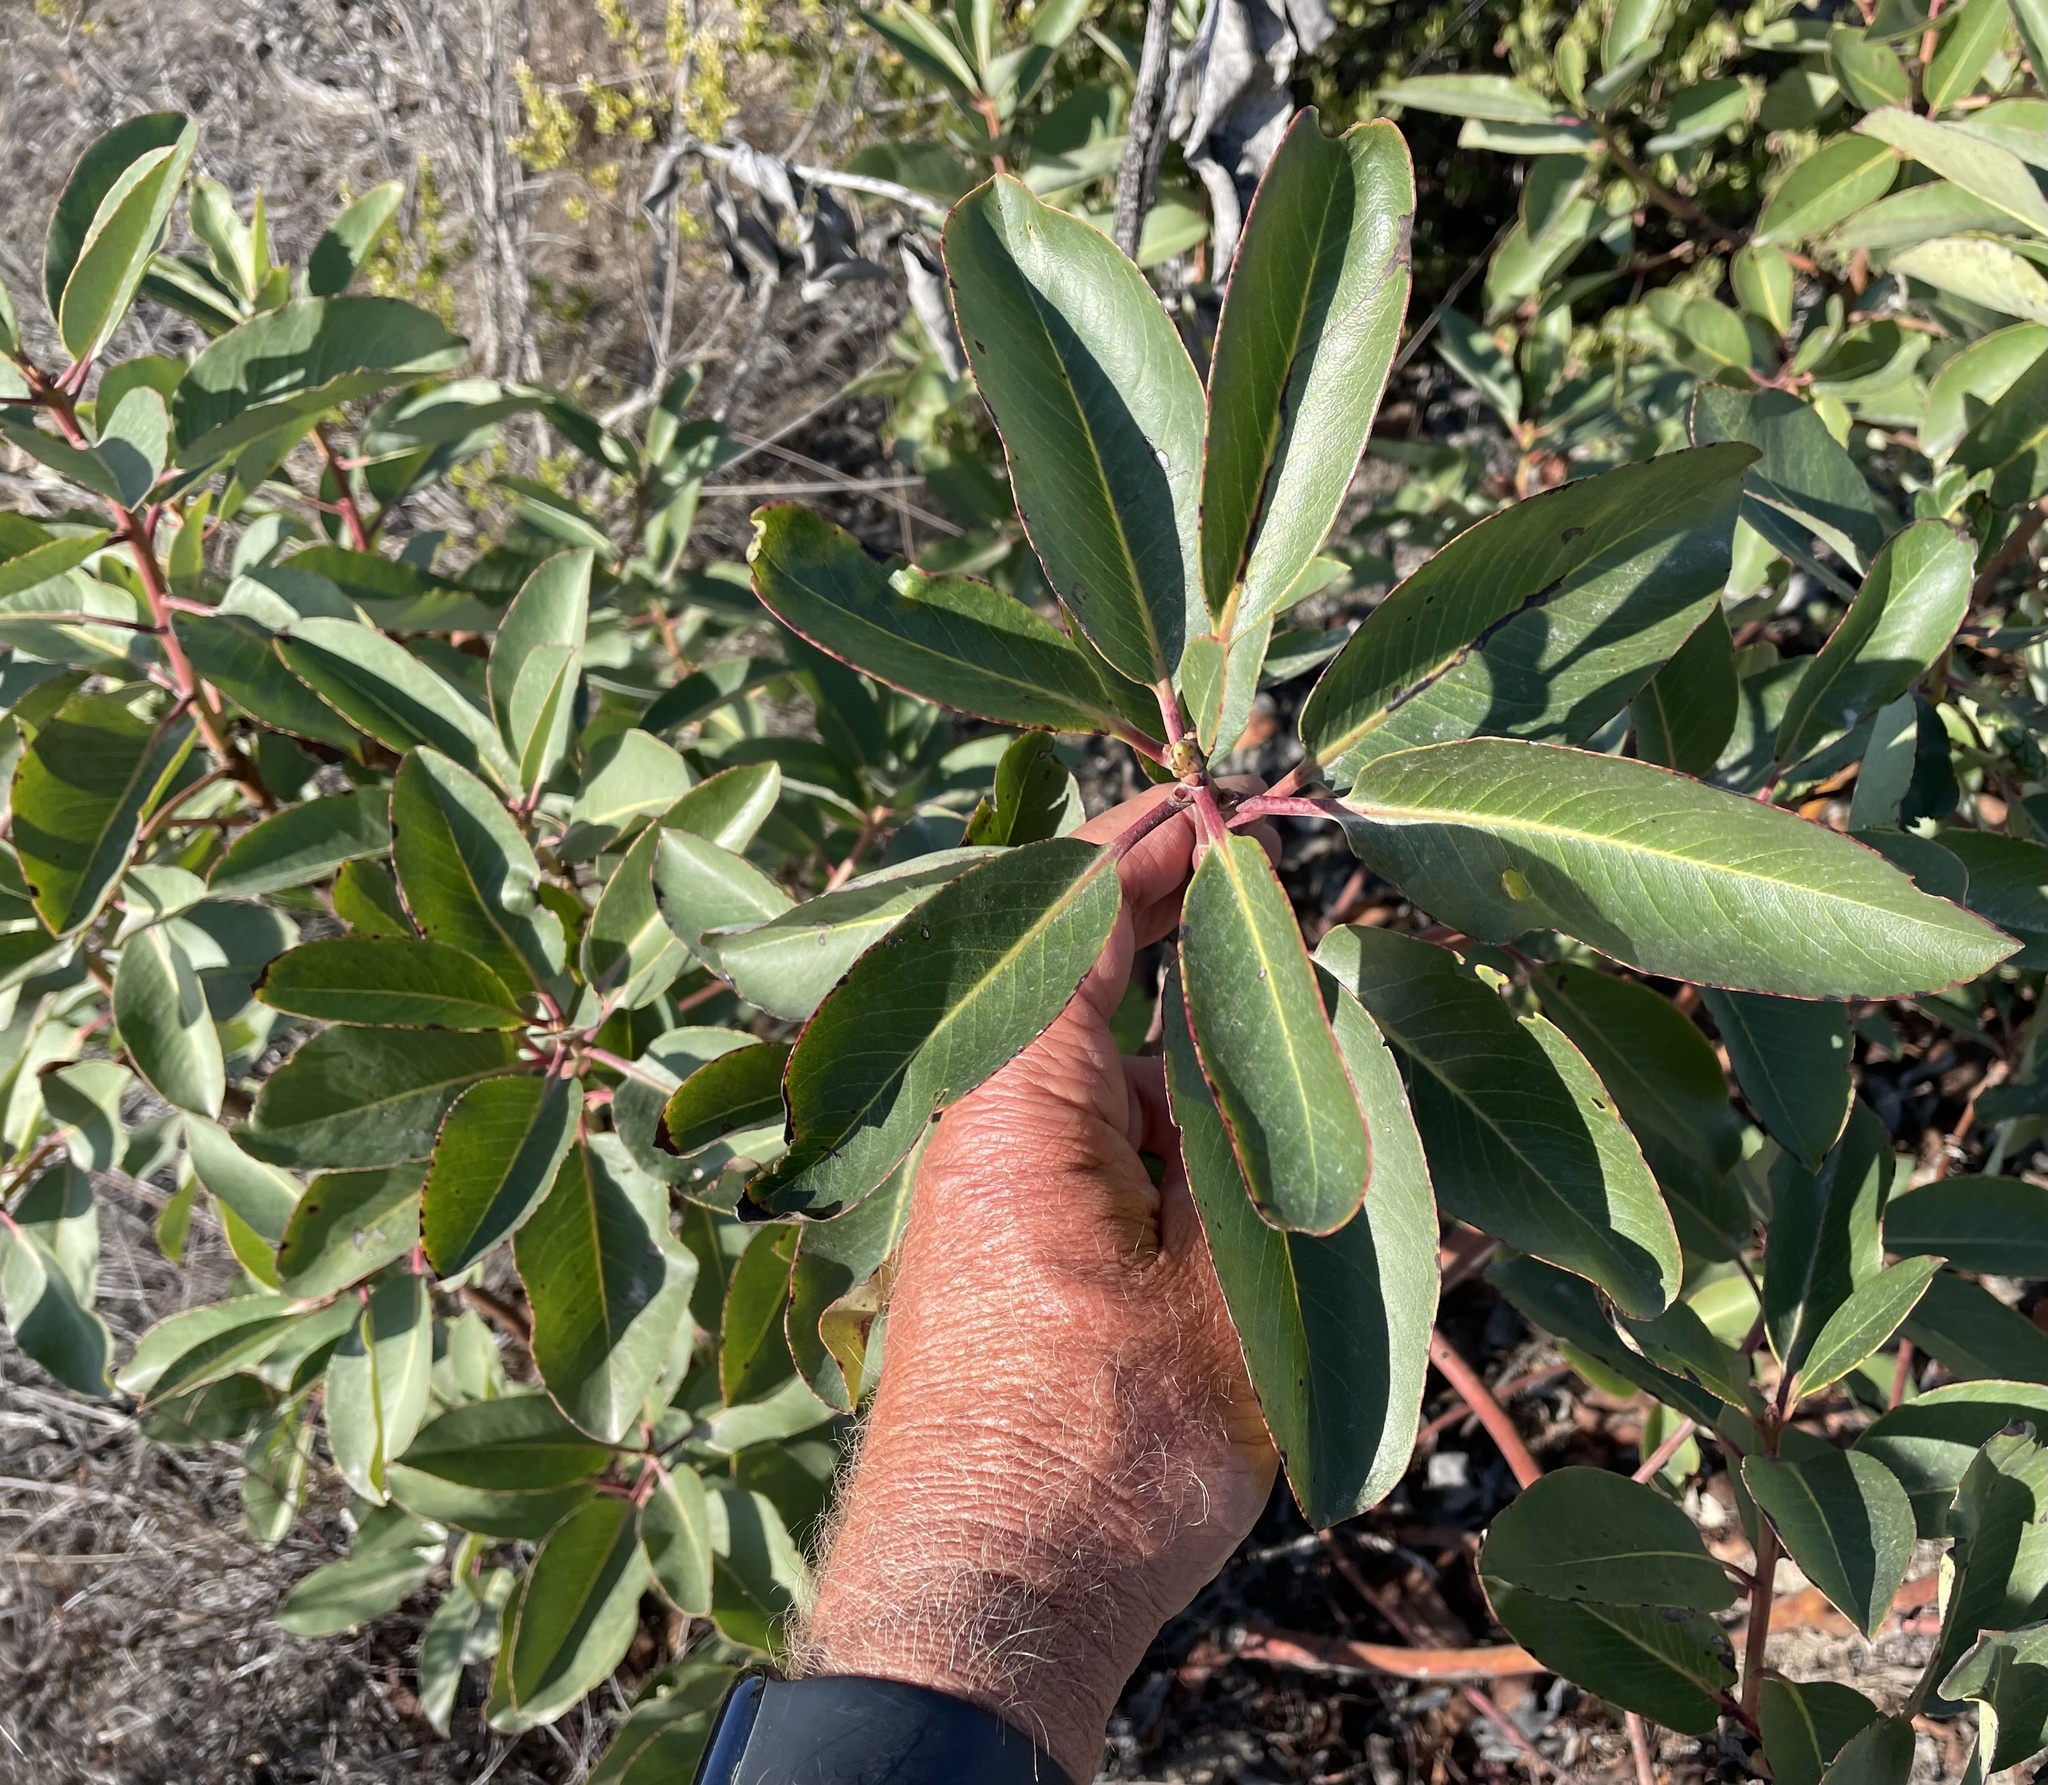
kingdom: Plantae
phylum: Tracheophyta
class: Magnoliopsida
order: Ericales
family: Ericaceae
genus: Arbutus
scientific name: Arbutus menziesii
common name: Pacific madrone
